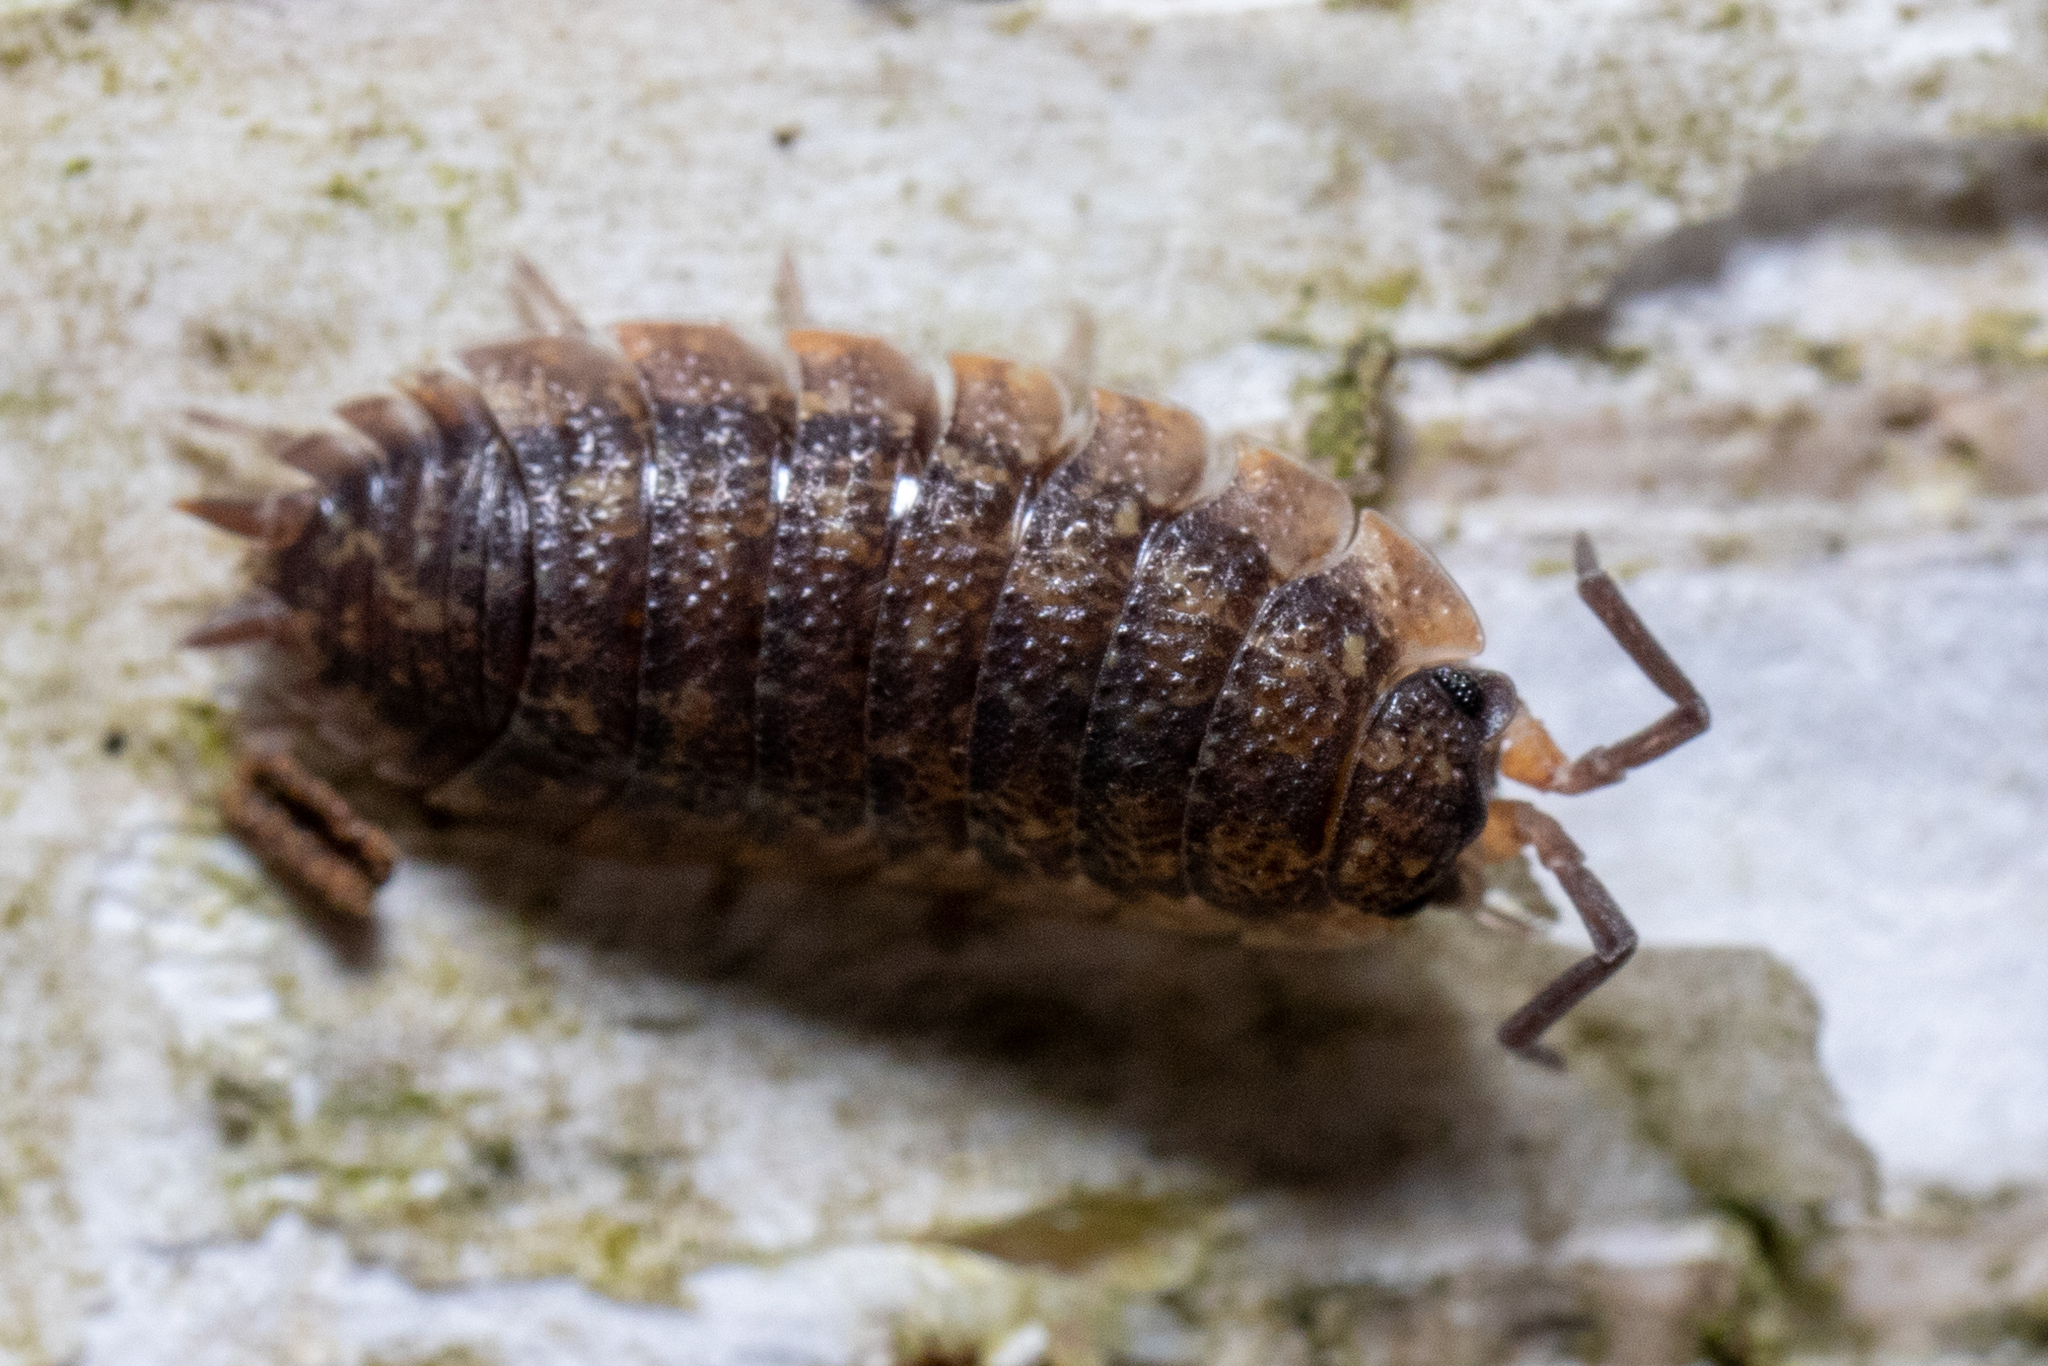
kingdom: Animalia
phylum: Arthropoda
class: Malacostraca
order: Isopoda
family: Porcellionidae
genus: Porcellio
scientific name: Porcellio scaber
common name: Common rough woodlouse
